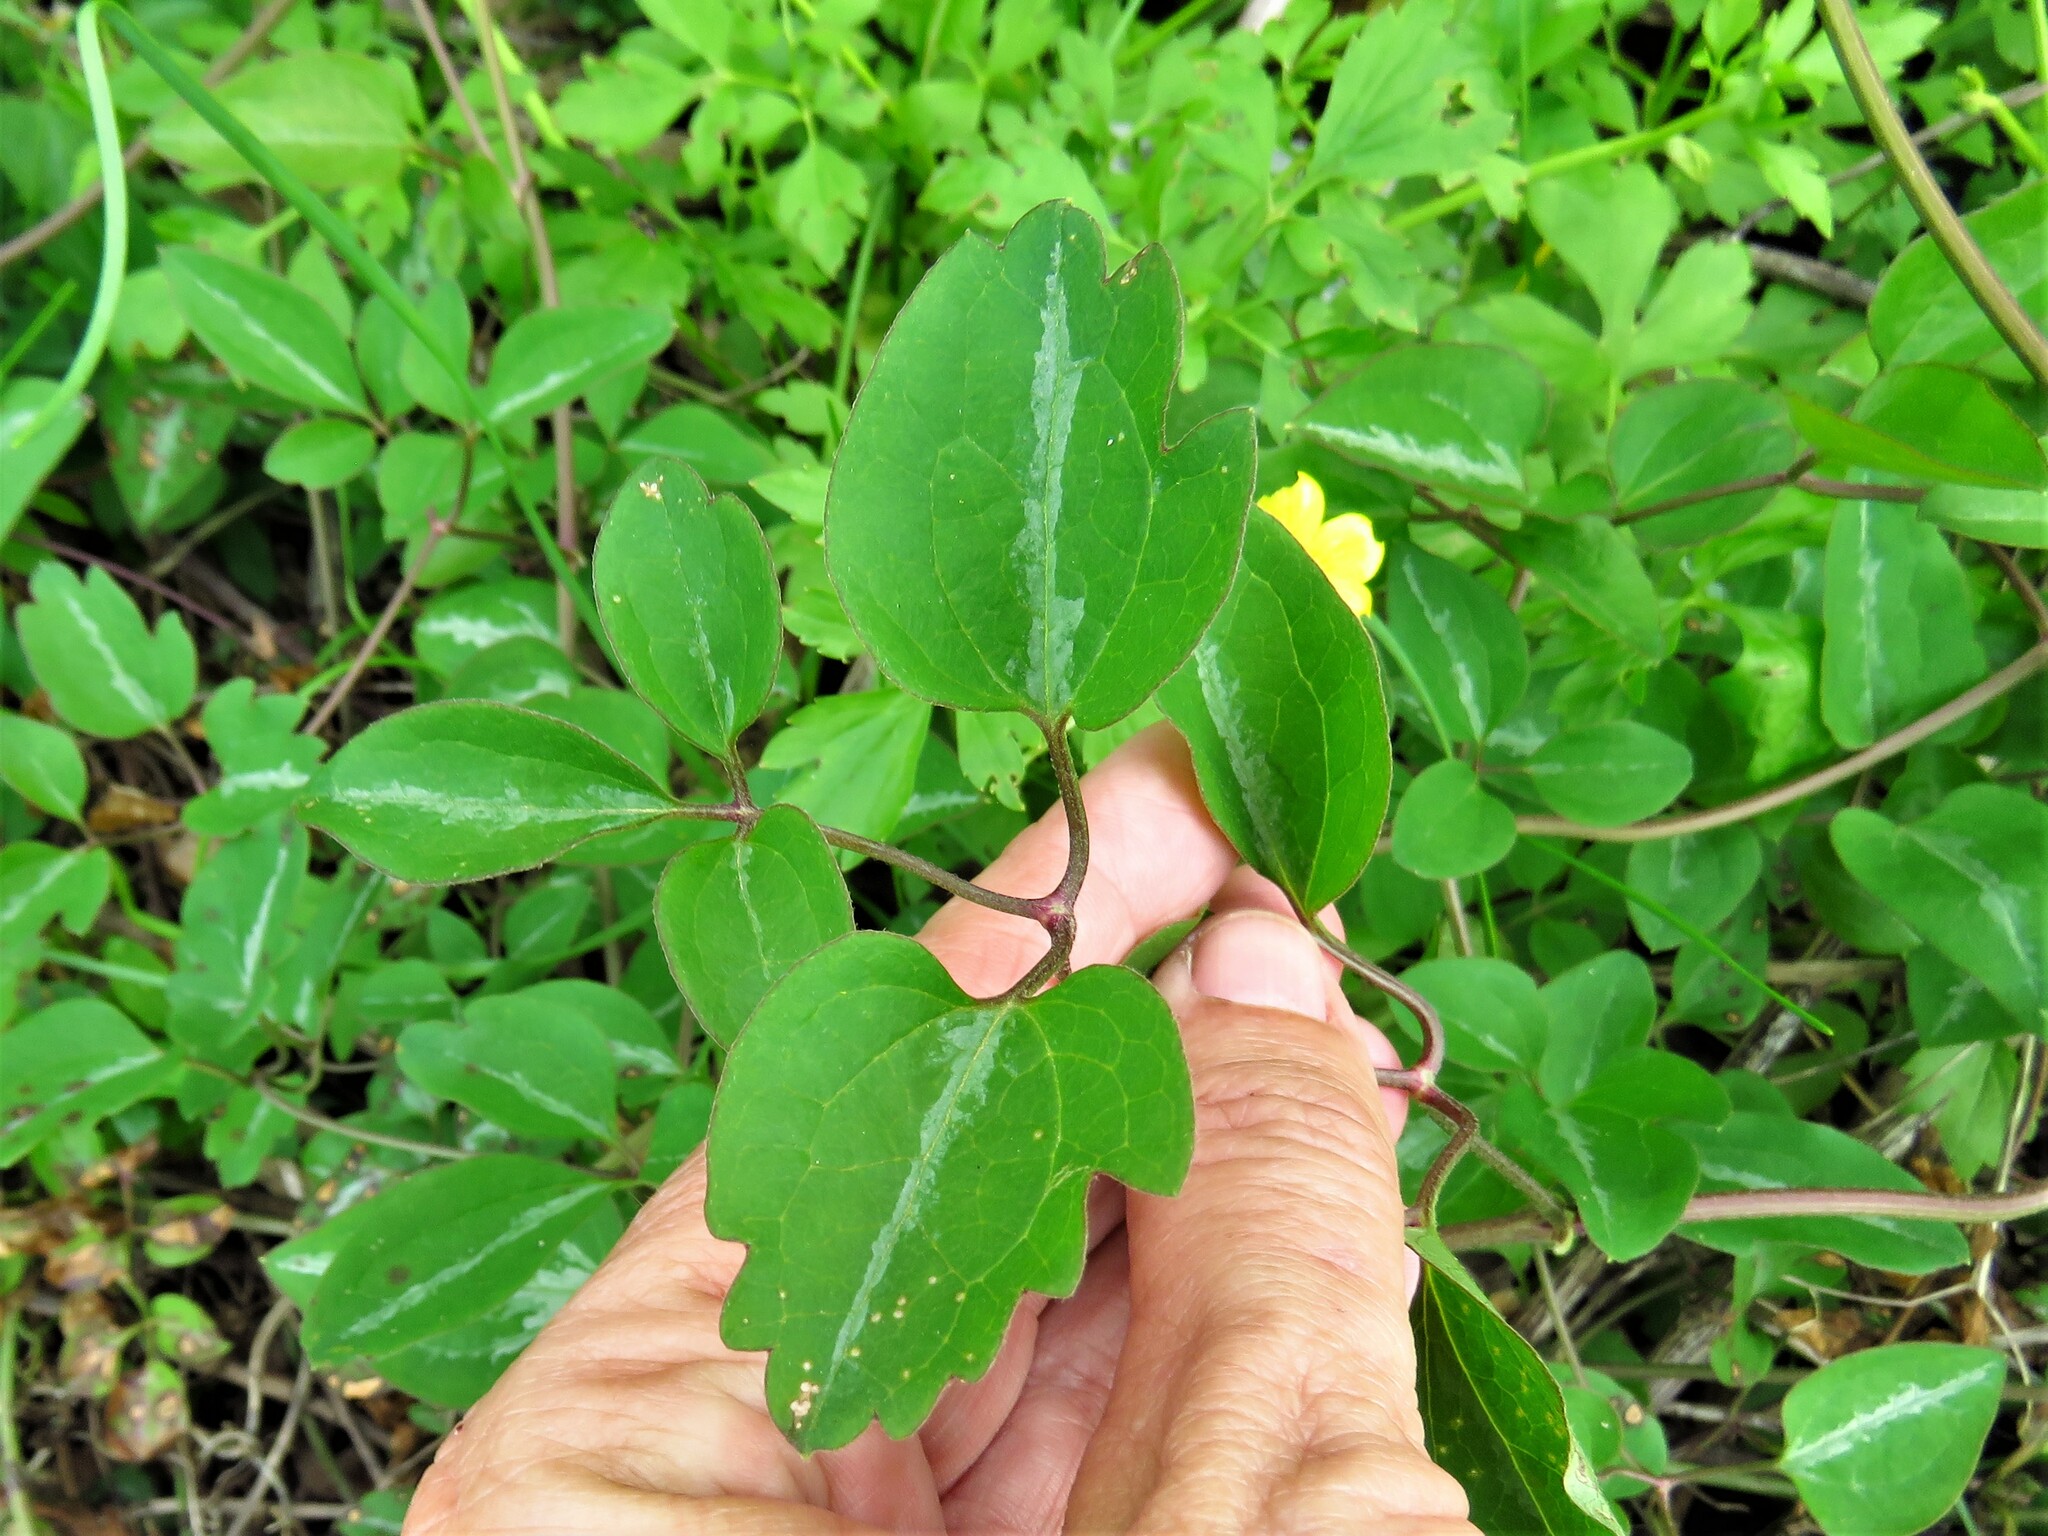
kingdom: Plantae
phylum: Tracheophyta
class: Magnoliopsida
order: Ranunculales
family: Ranunculaceae
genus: Clematis
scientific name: Clematis terniflora
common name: Sweet autumn clematis
